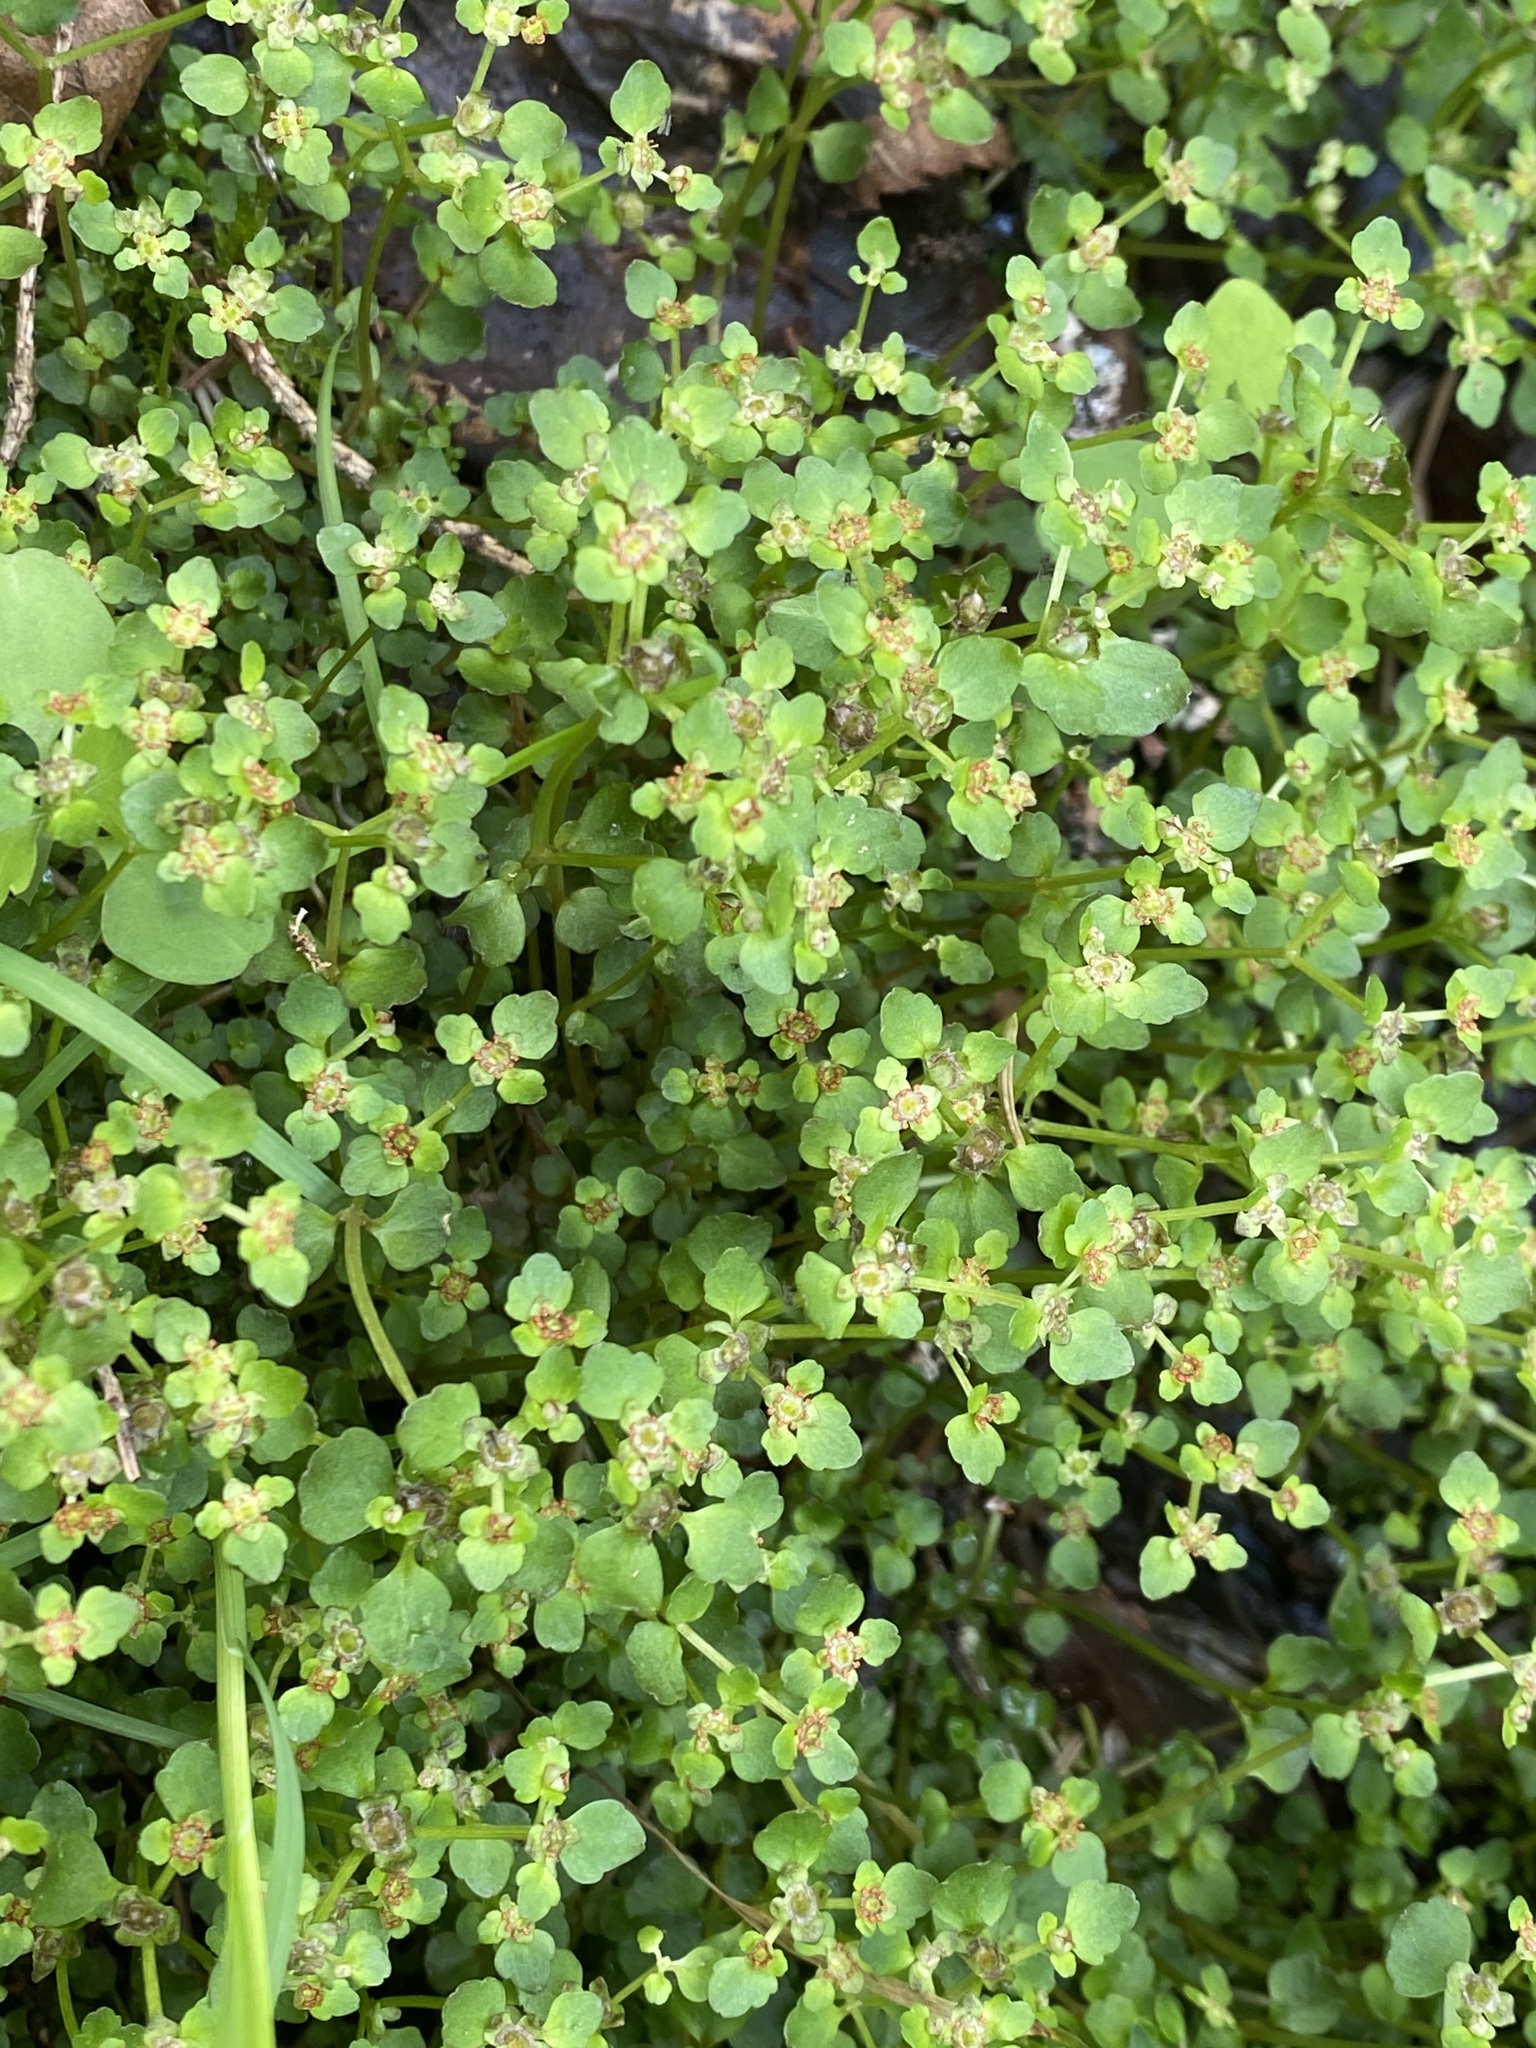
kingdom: Plantae
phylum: Tracheophyta
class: Magnoliopsida
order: Saxifragales
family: Saxifragaceae
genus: Chrysosplenium
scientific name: Chrysosplenium americanum
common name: American golden-saxifrage
